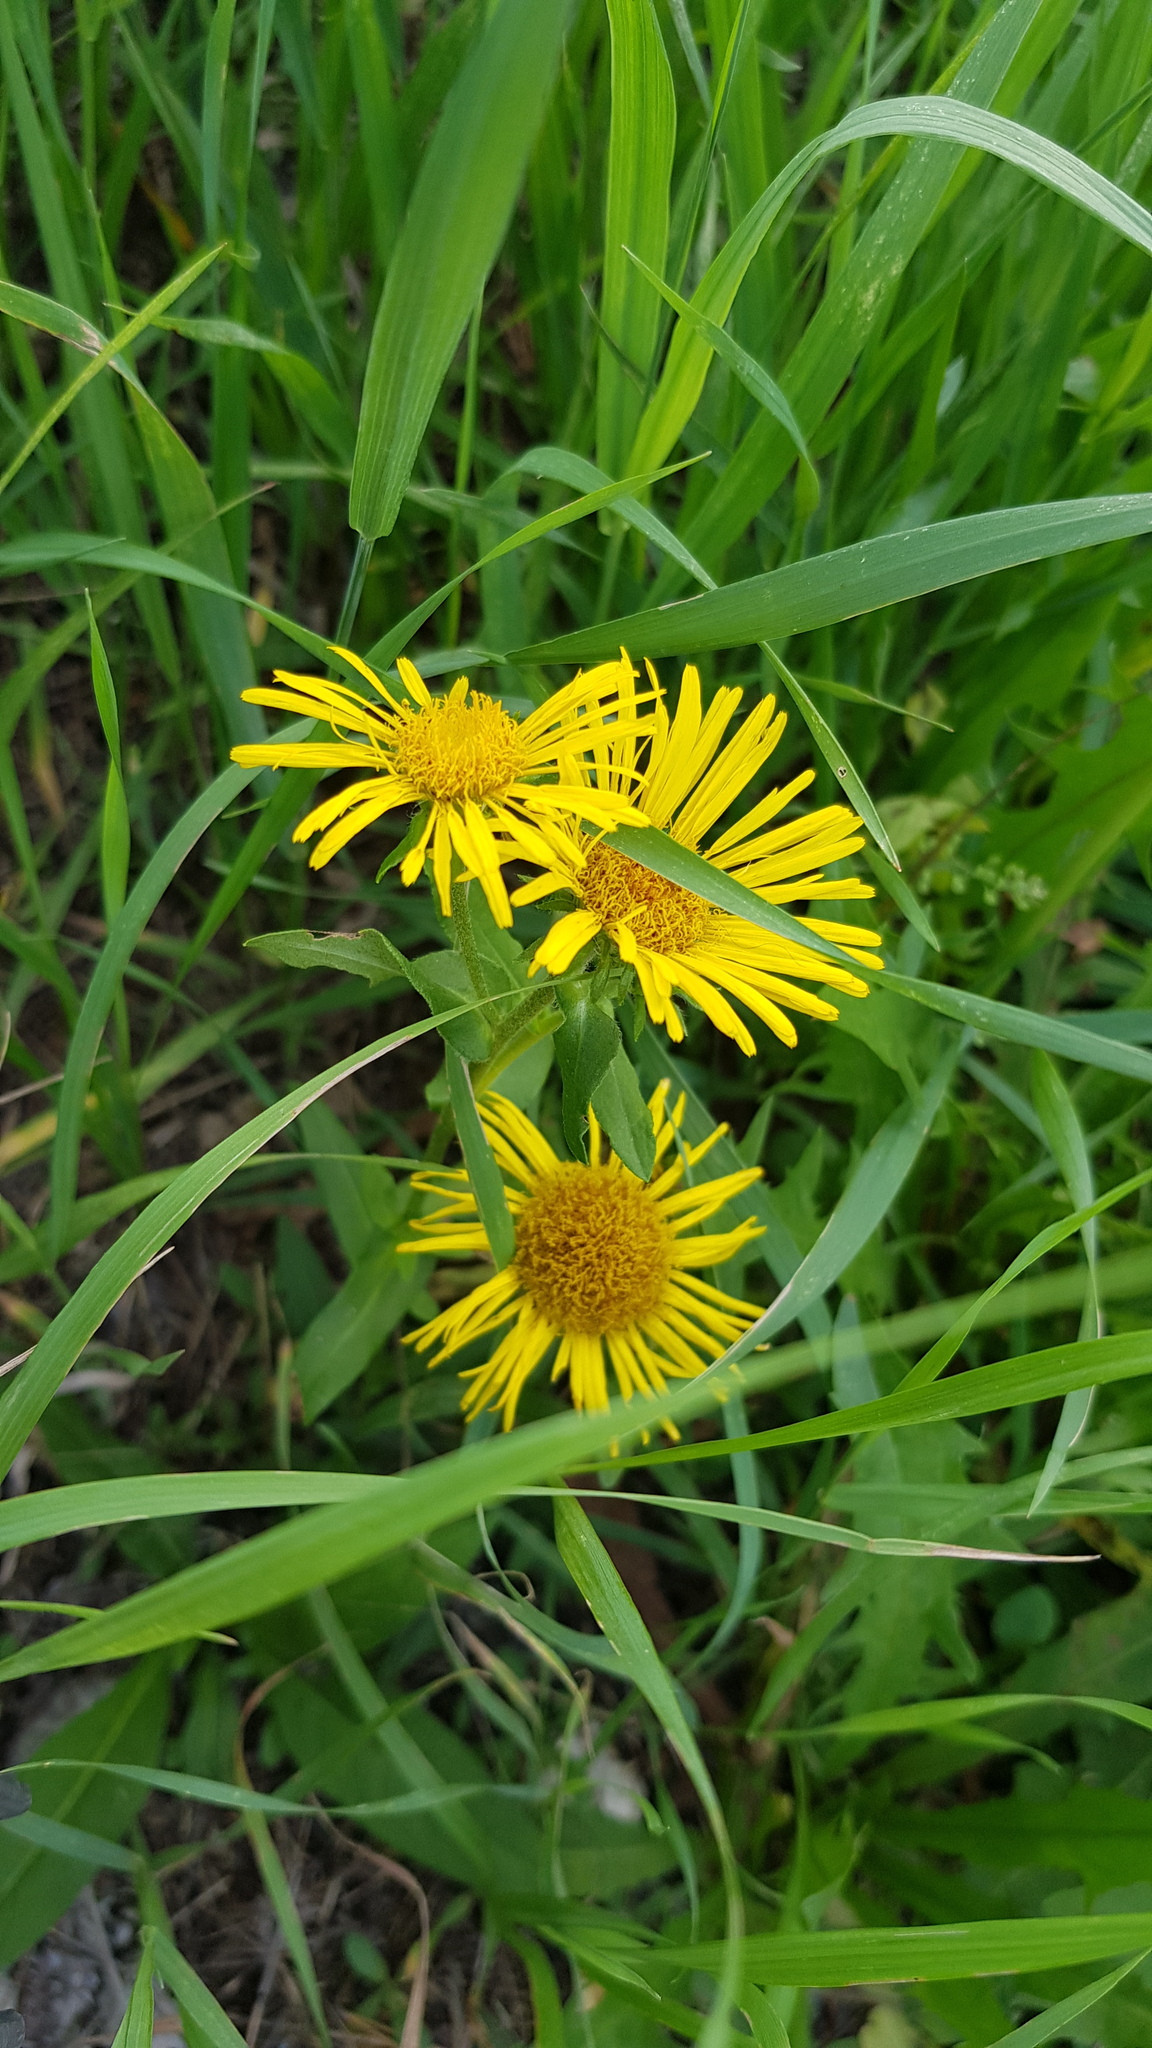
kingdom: Plantae
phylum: Tracheophyta
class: Magnoliopsida
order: Asterales
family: Asteraceae
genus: Pentanema
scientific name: Pentanema britannicum
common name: British elecampane
